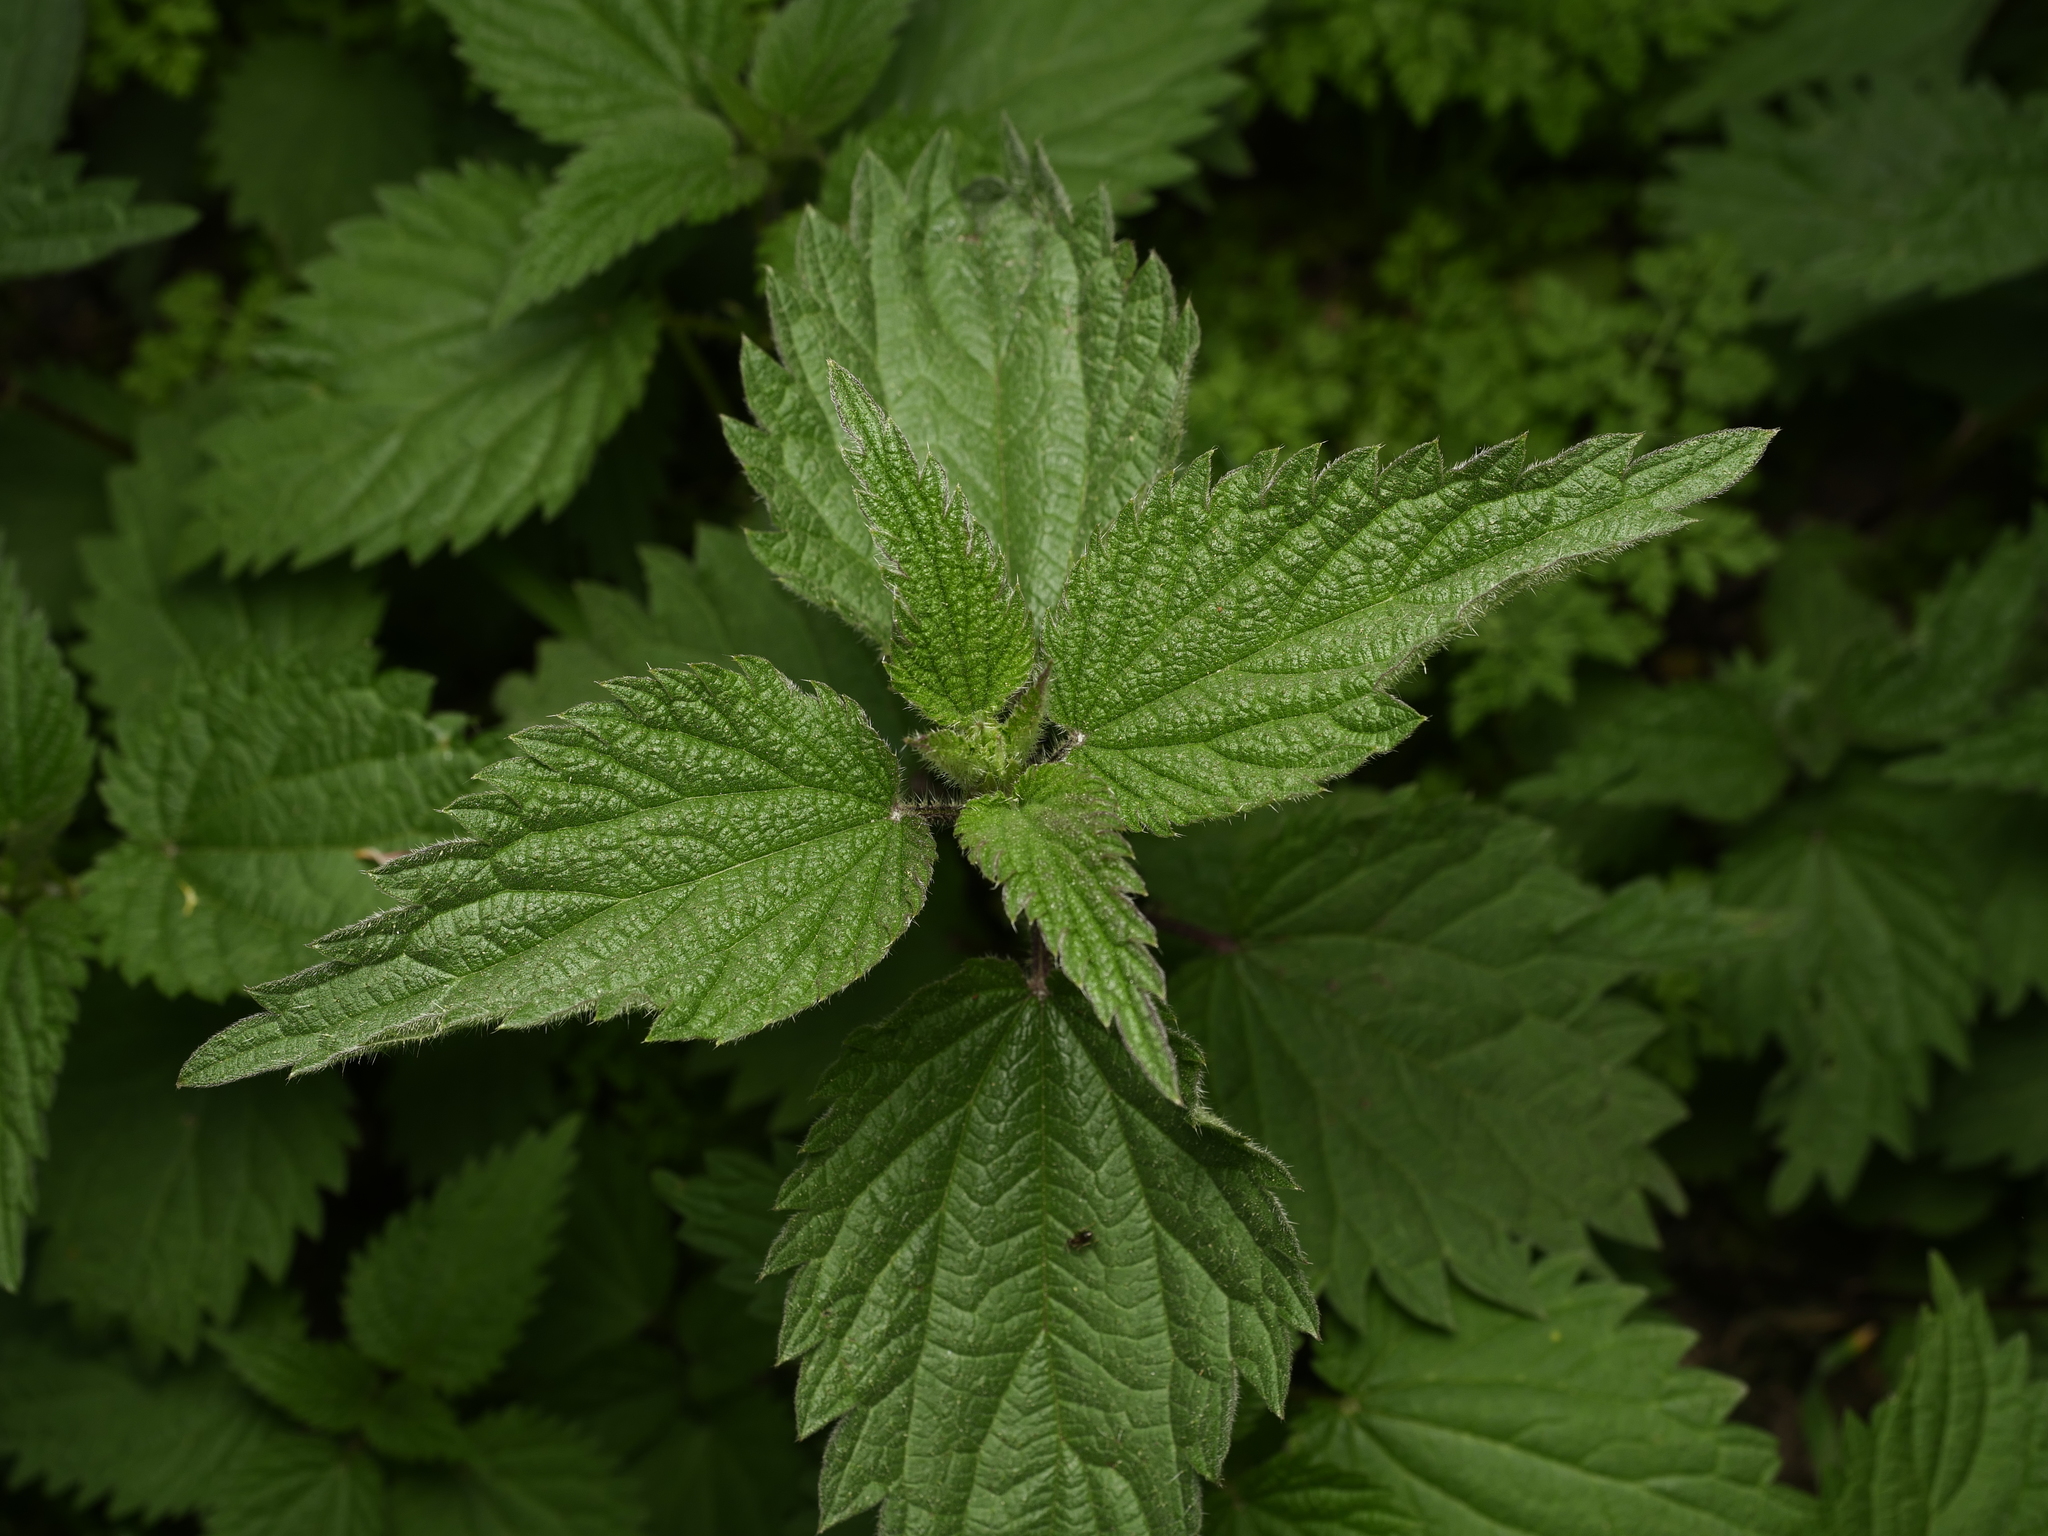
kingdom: Plantae
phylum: Tracheophyta
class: Magnoliopsida
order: Rosales
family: Urticaceae
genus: Urtica
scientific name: Urtica dioica
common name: Common nettle
